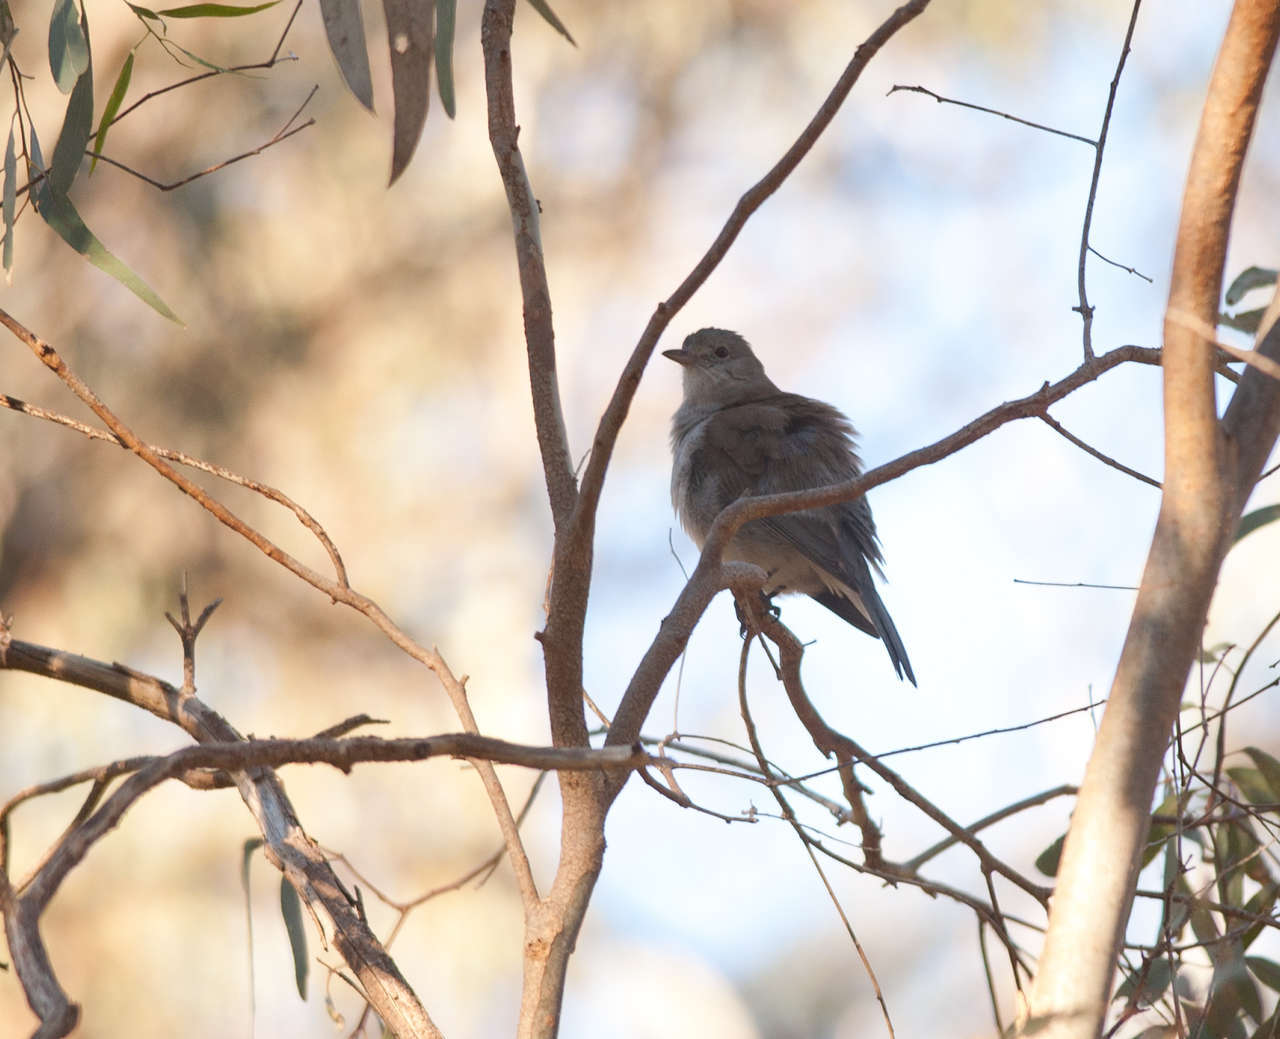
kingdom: Animalia
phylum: Chordata
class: Aves
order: Passeriformes
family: Pachycephalidae
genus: Colluricincla
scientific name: Colluricincla harmonica
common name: Grey shrikethrush
